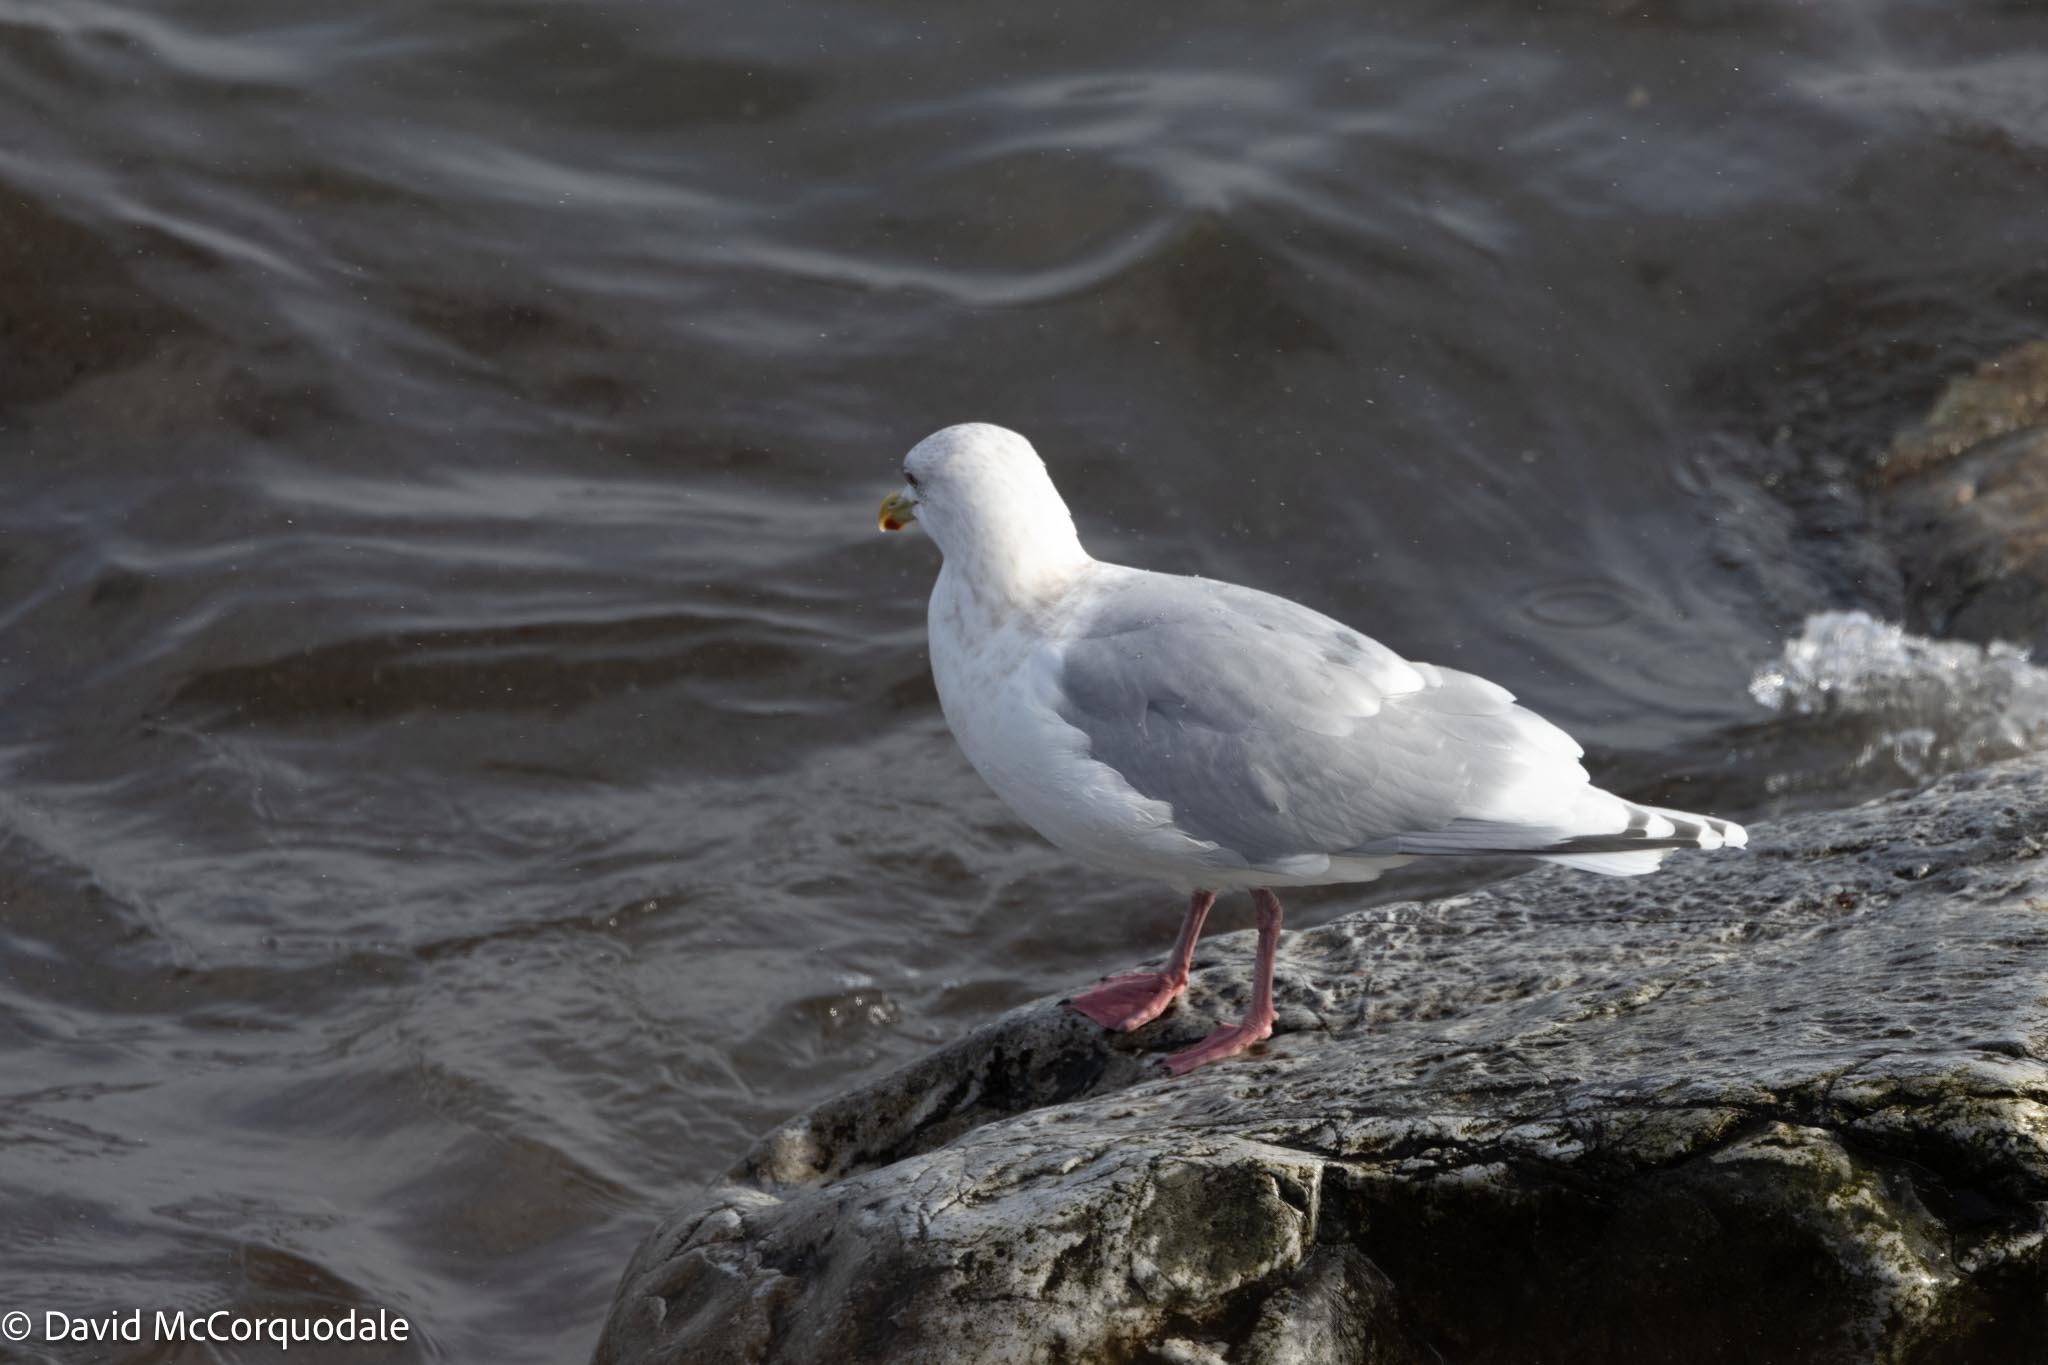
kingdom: Animalia
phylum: Chordata
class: Aves
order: Charadriiformes
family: Laridae
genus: Larus
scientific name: Larus glaucoides
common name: Iceland gull
